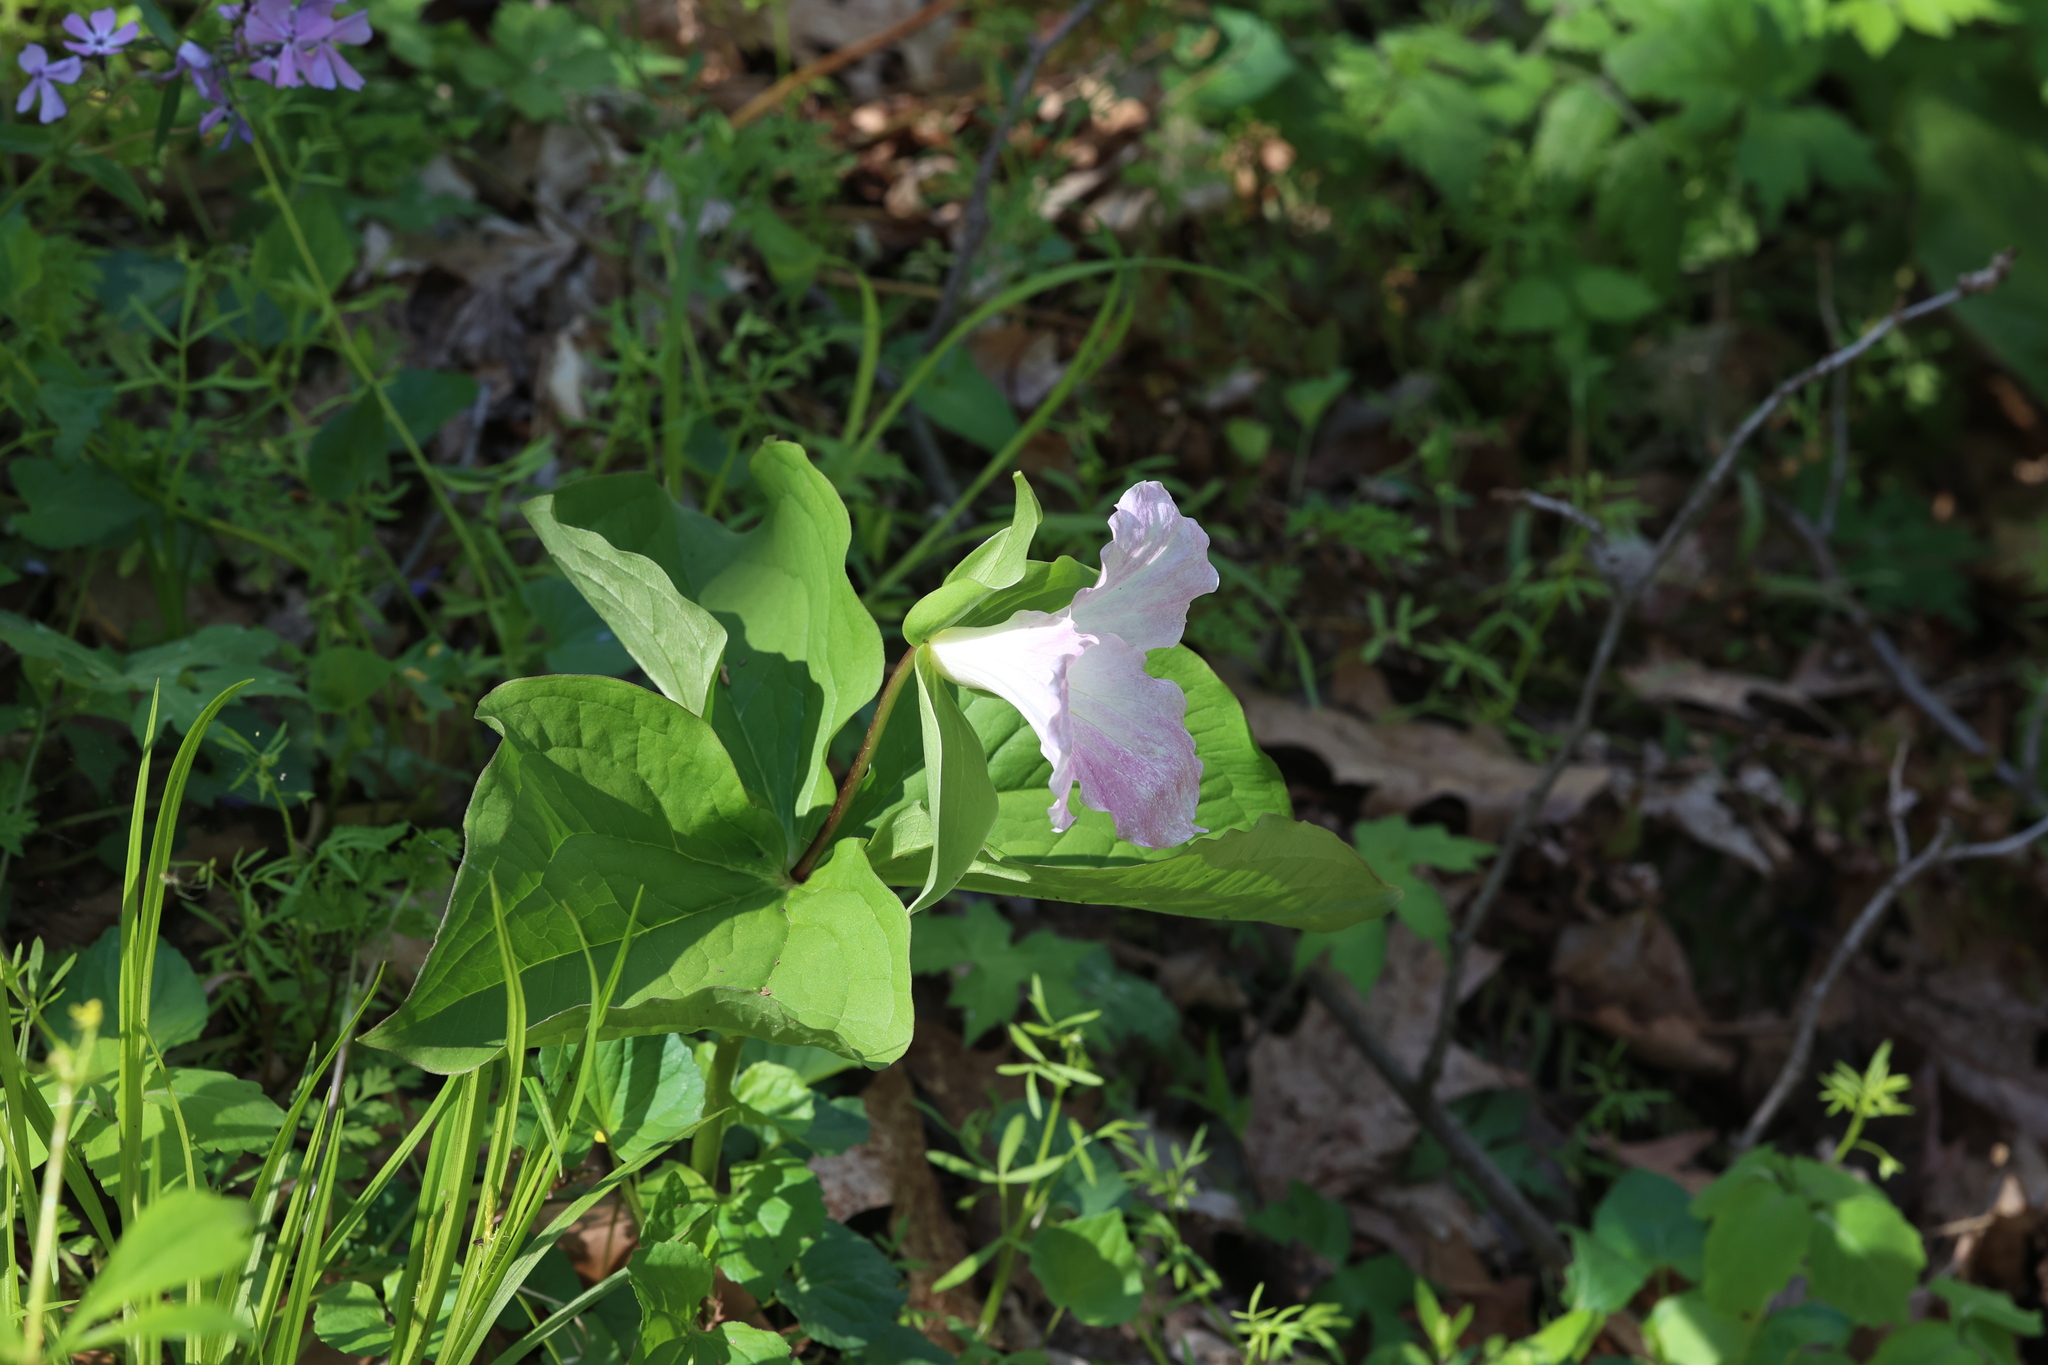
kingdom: Plantae
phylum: Tracheophyta
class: Liliopsida
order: Liliales
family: Melanthiaceae
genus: Trillium
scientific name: Trillium grandiflorum
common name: Great white trillium
